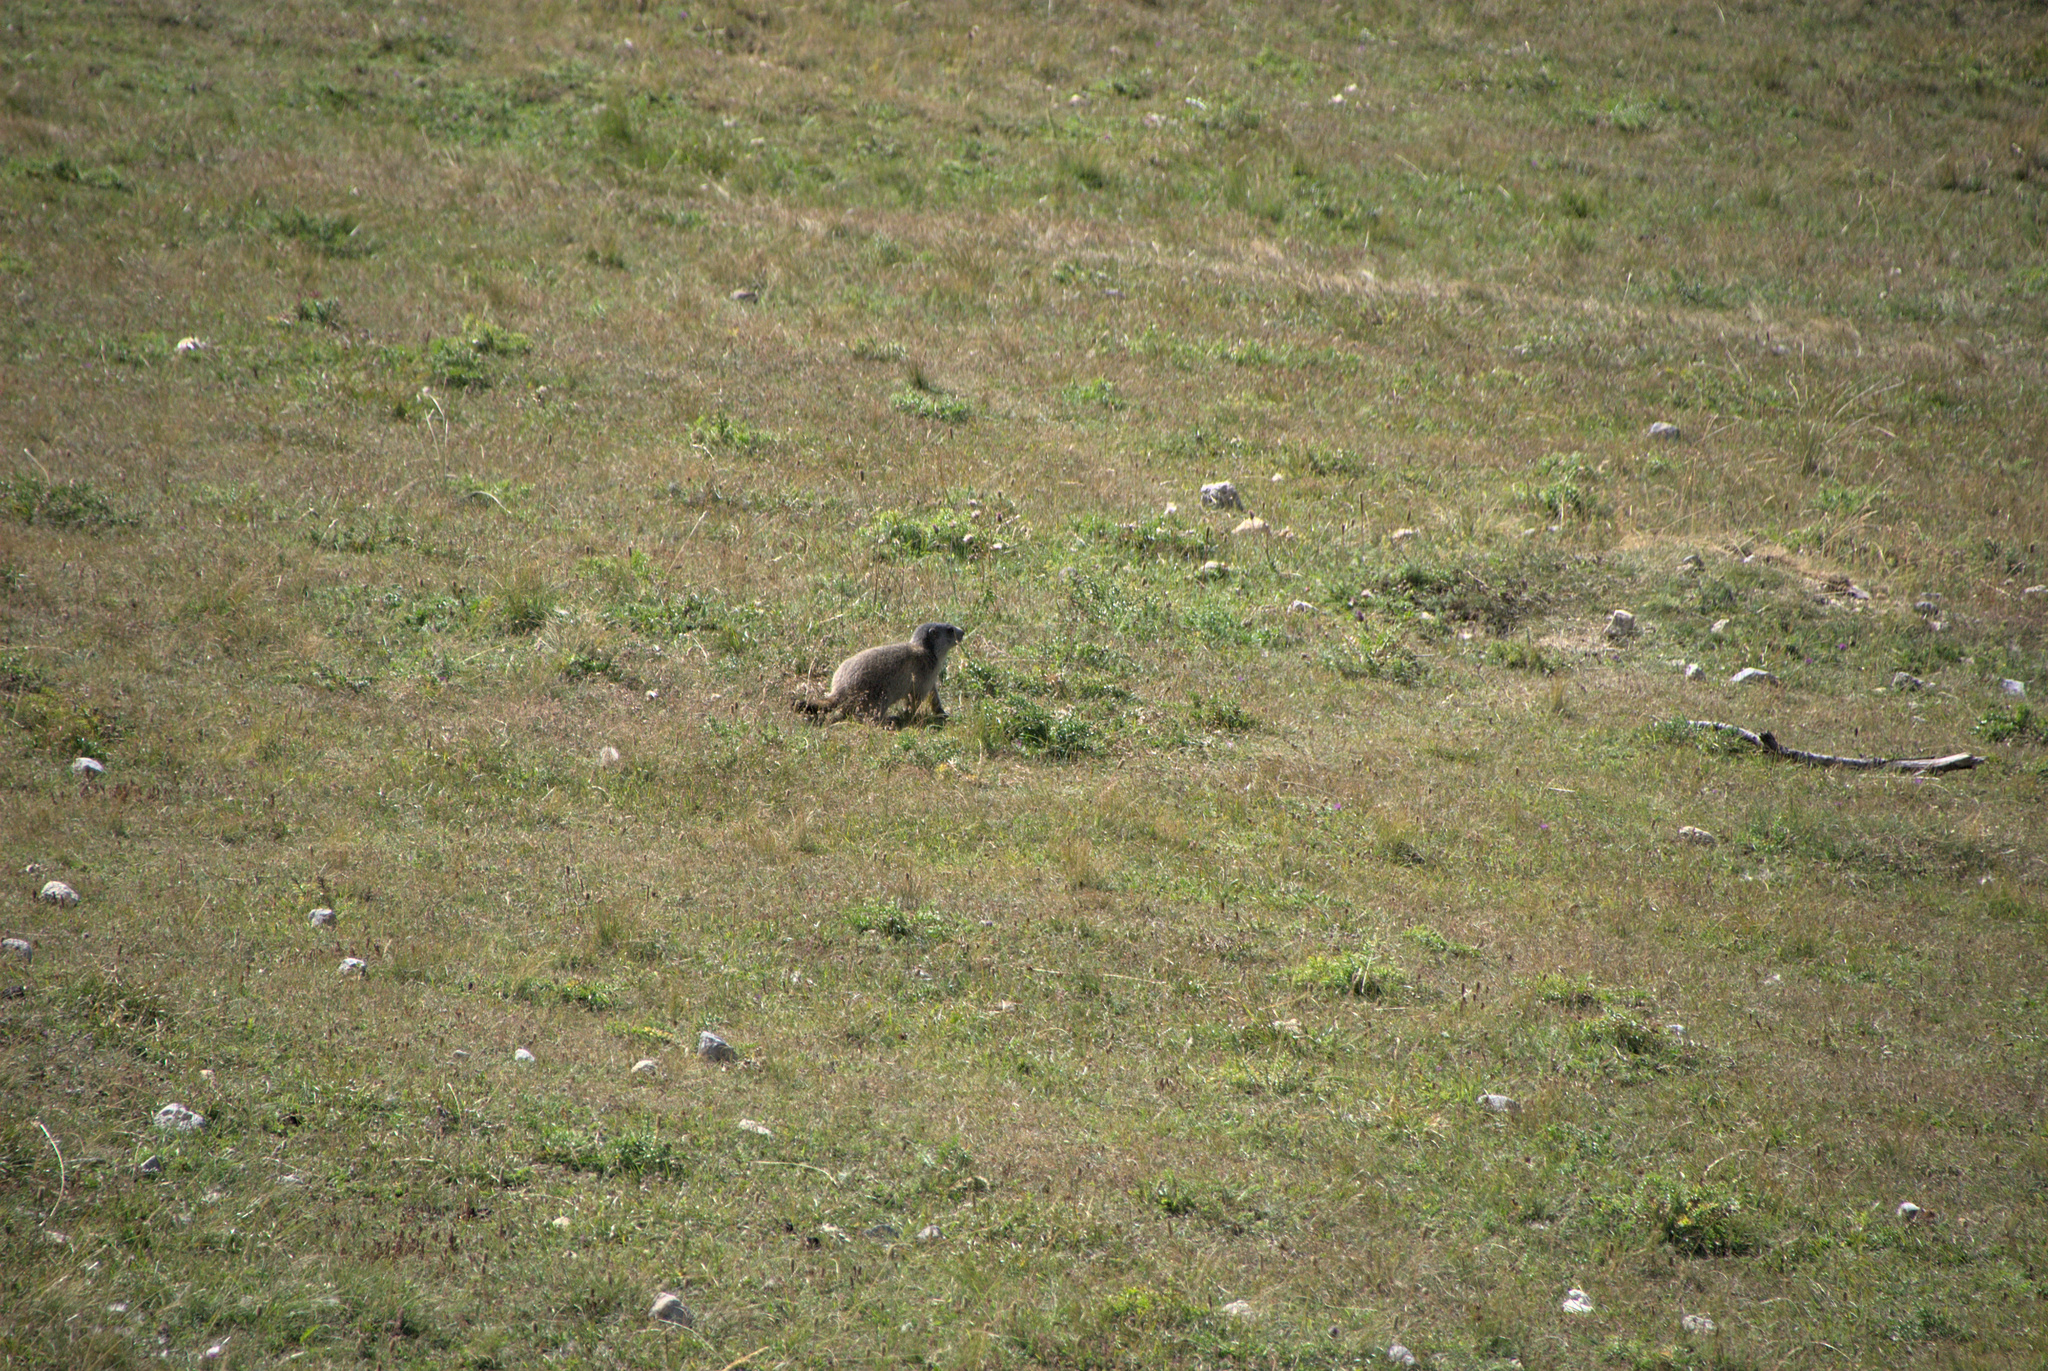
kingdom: Animalia
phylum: Chordata
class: Mammalia
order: Rodentia
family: Sciuridae
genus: Marmota
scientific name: Marmota marmota
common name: Alpine marmot
